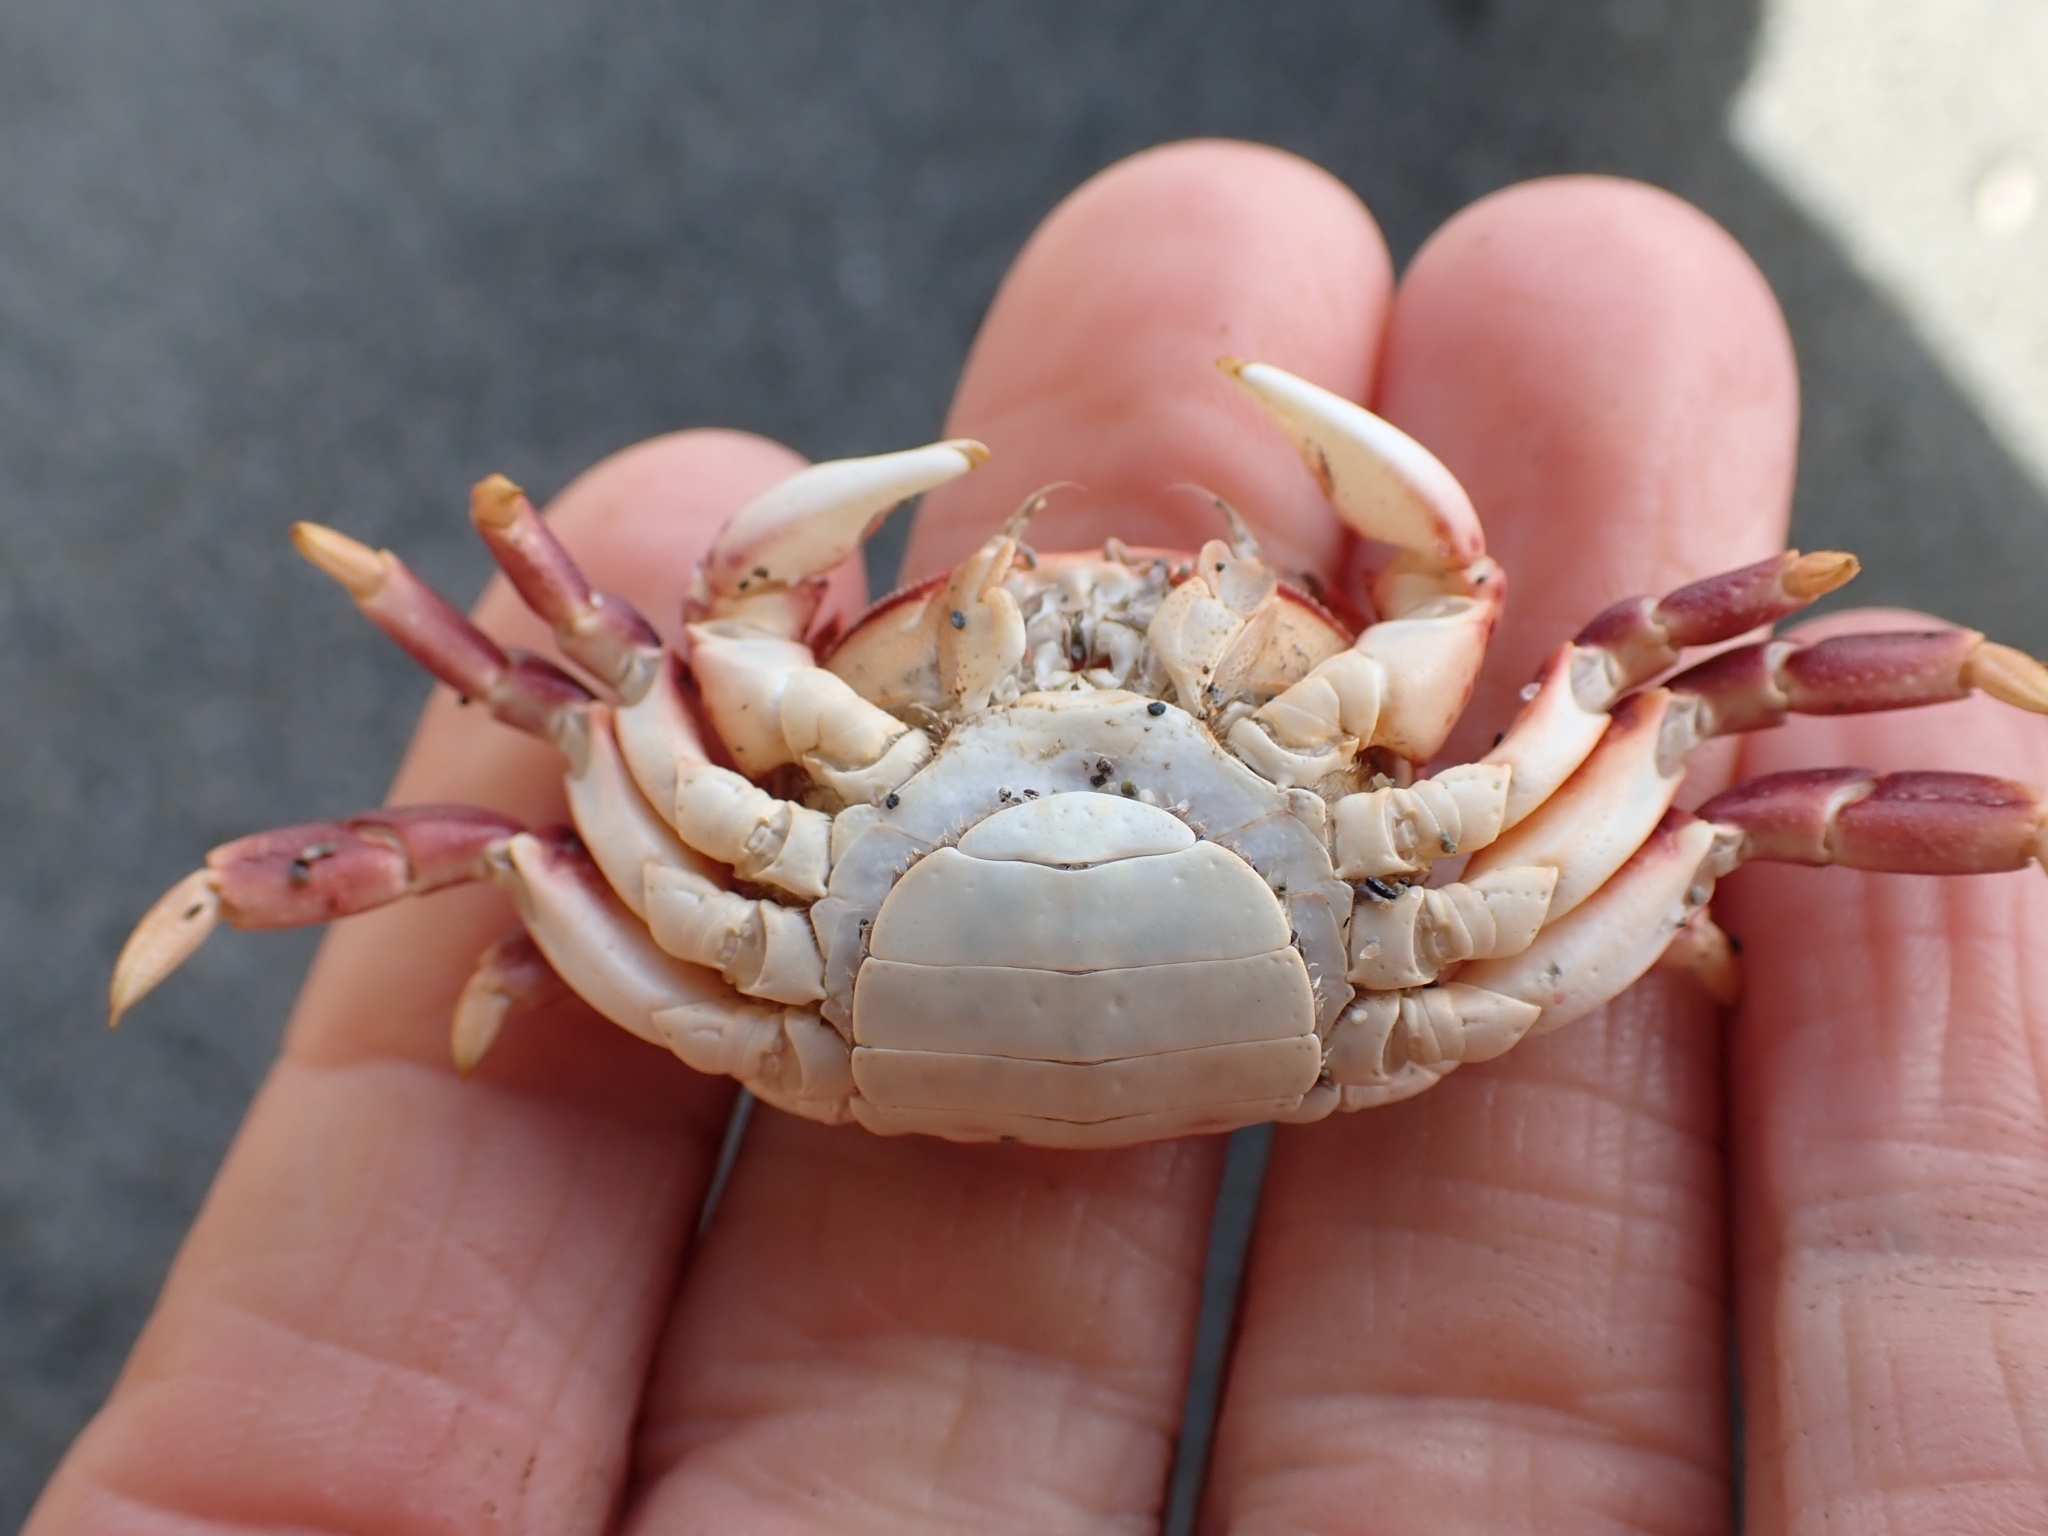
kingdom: Animalia
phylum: Arthropoda
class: Malacostraca
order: Decapoda
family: Varunidae
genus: Hemigrapsus
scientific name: Hemigrapsus nudus
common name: Purple shore crab
